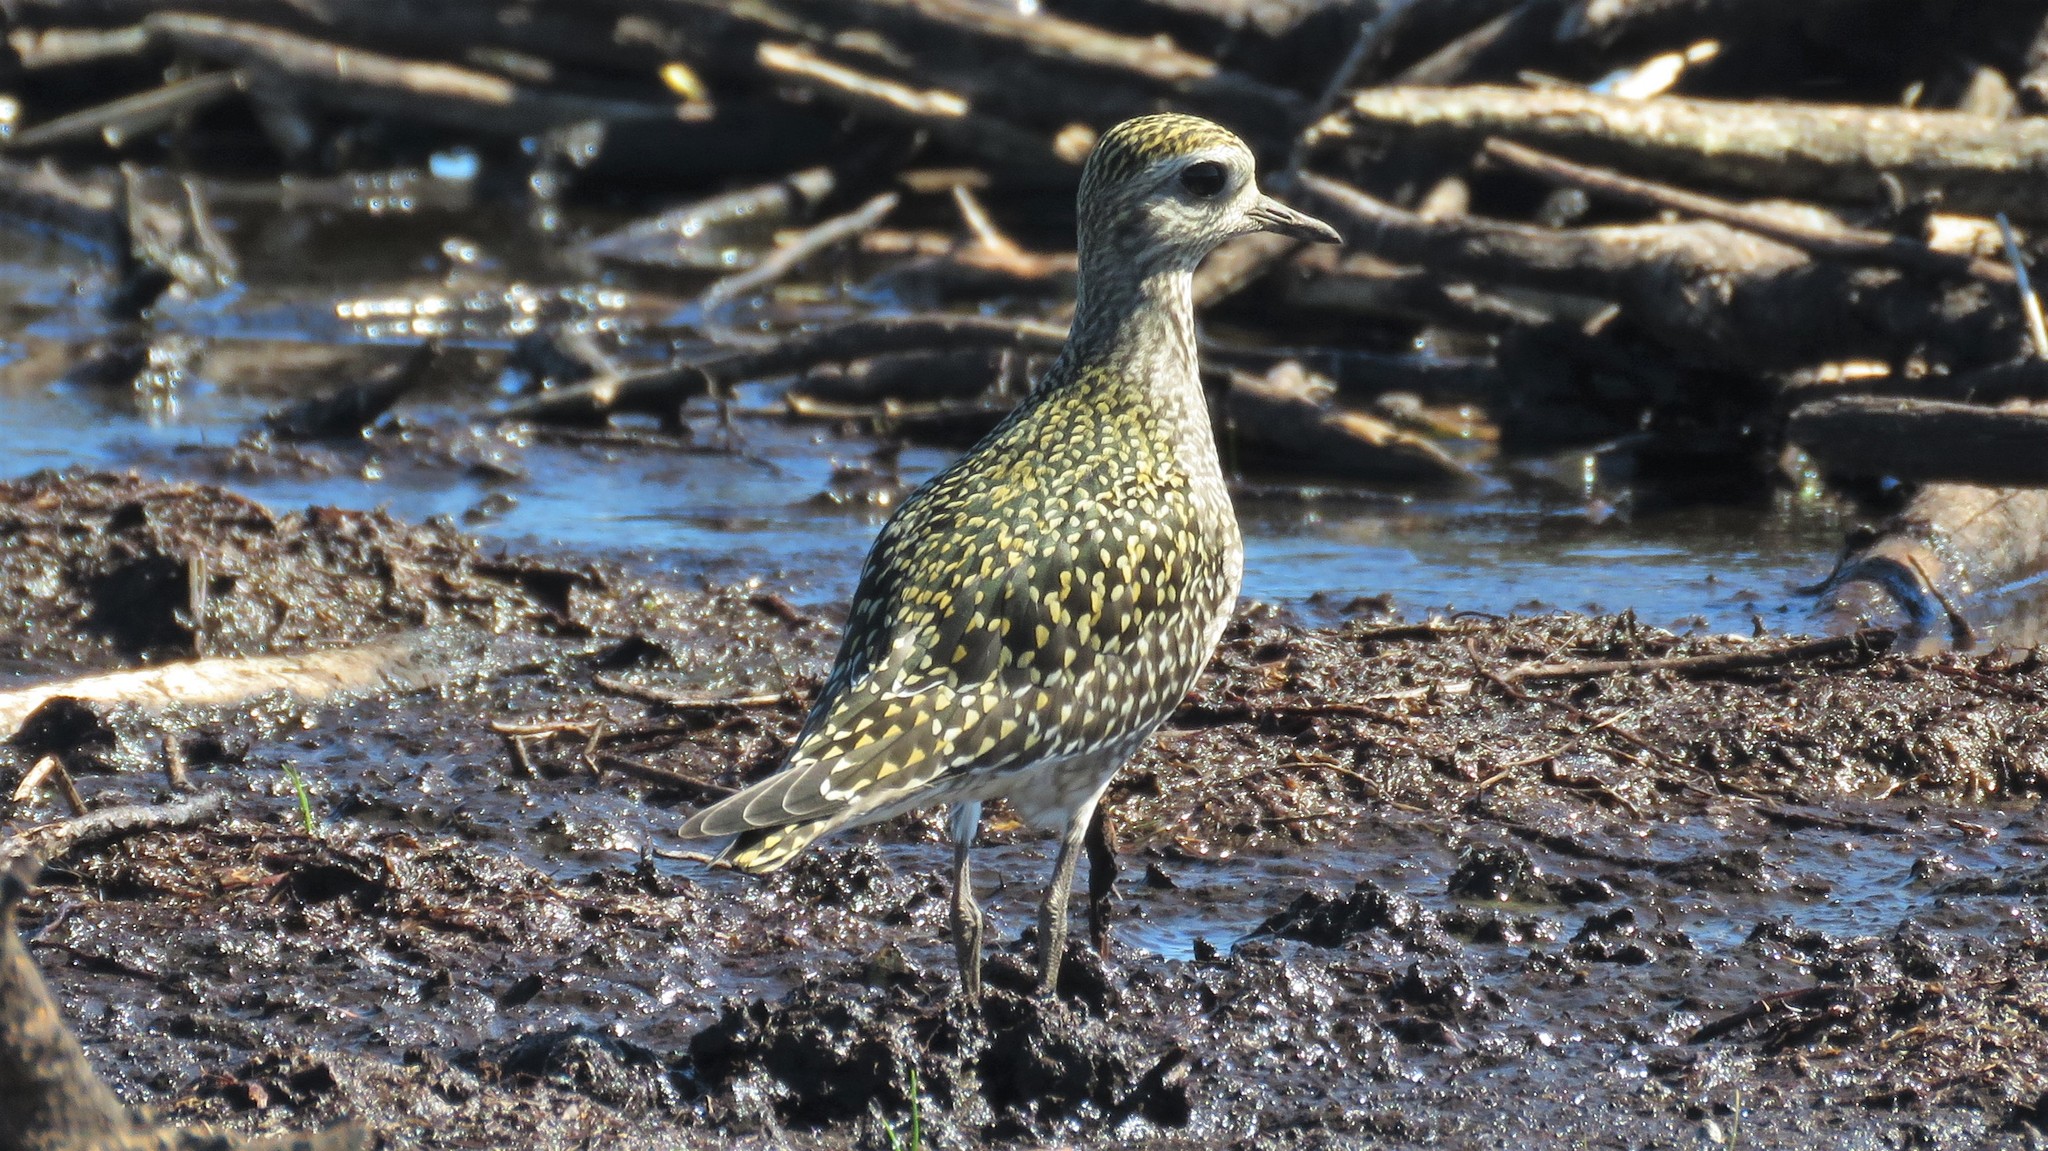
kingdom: Animalia
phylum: Chordata
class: Aves
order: Charadriiformes
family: Charadriidae
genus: Pluvialis
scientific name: Pluvialis dominica
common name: American golden plover
